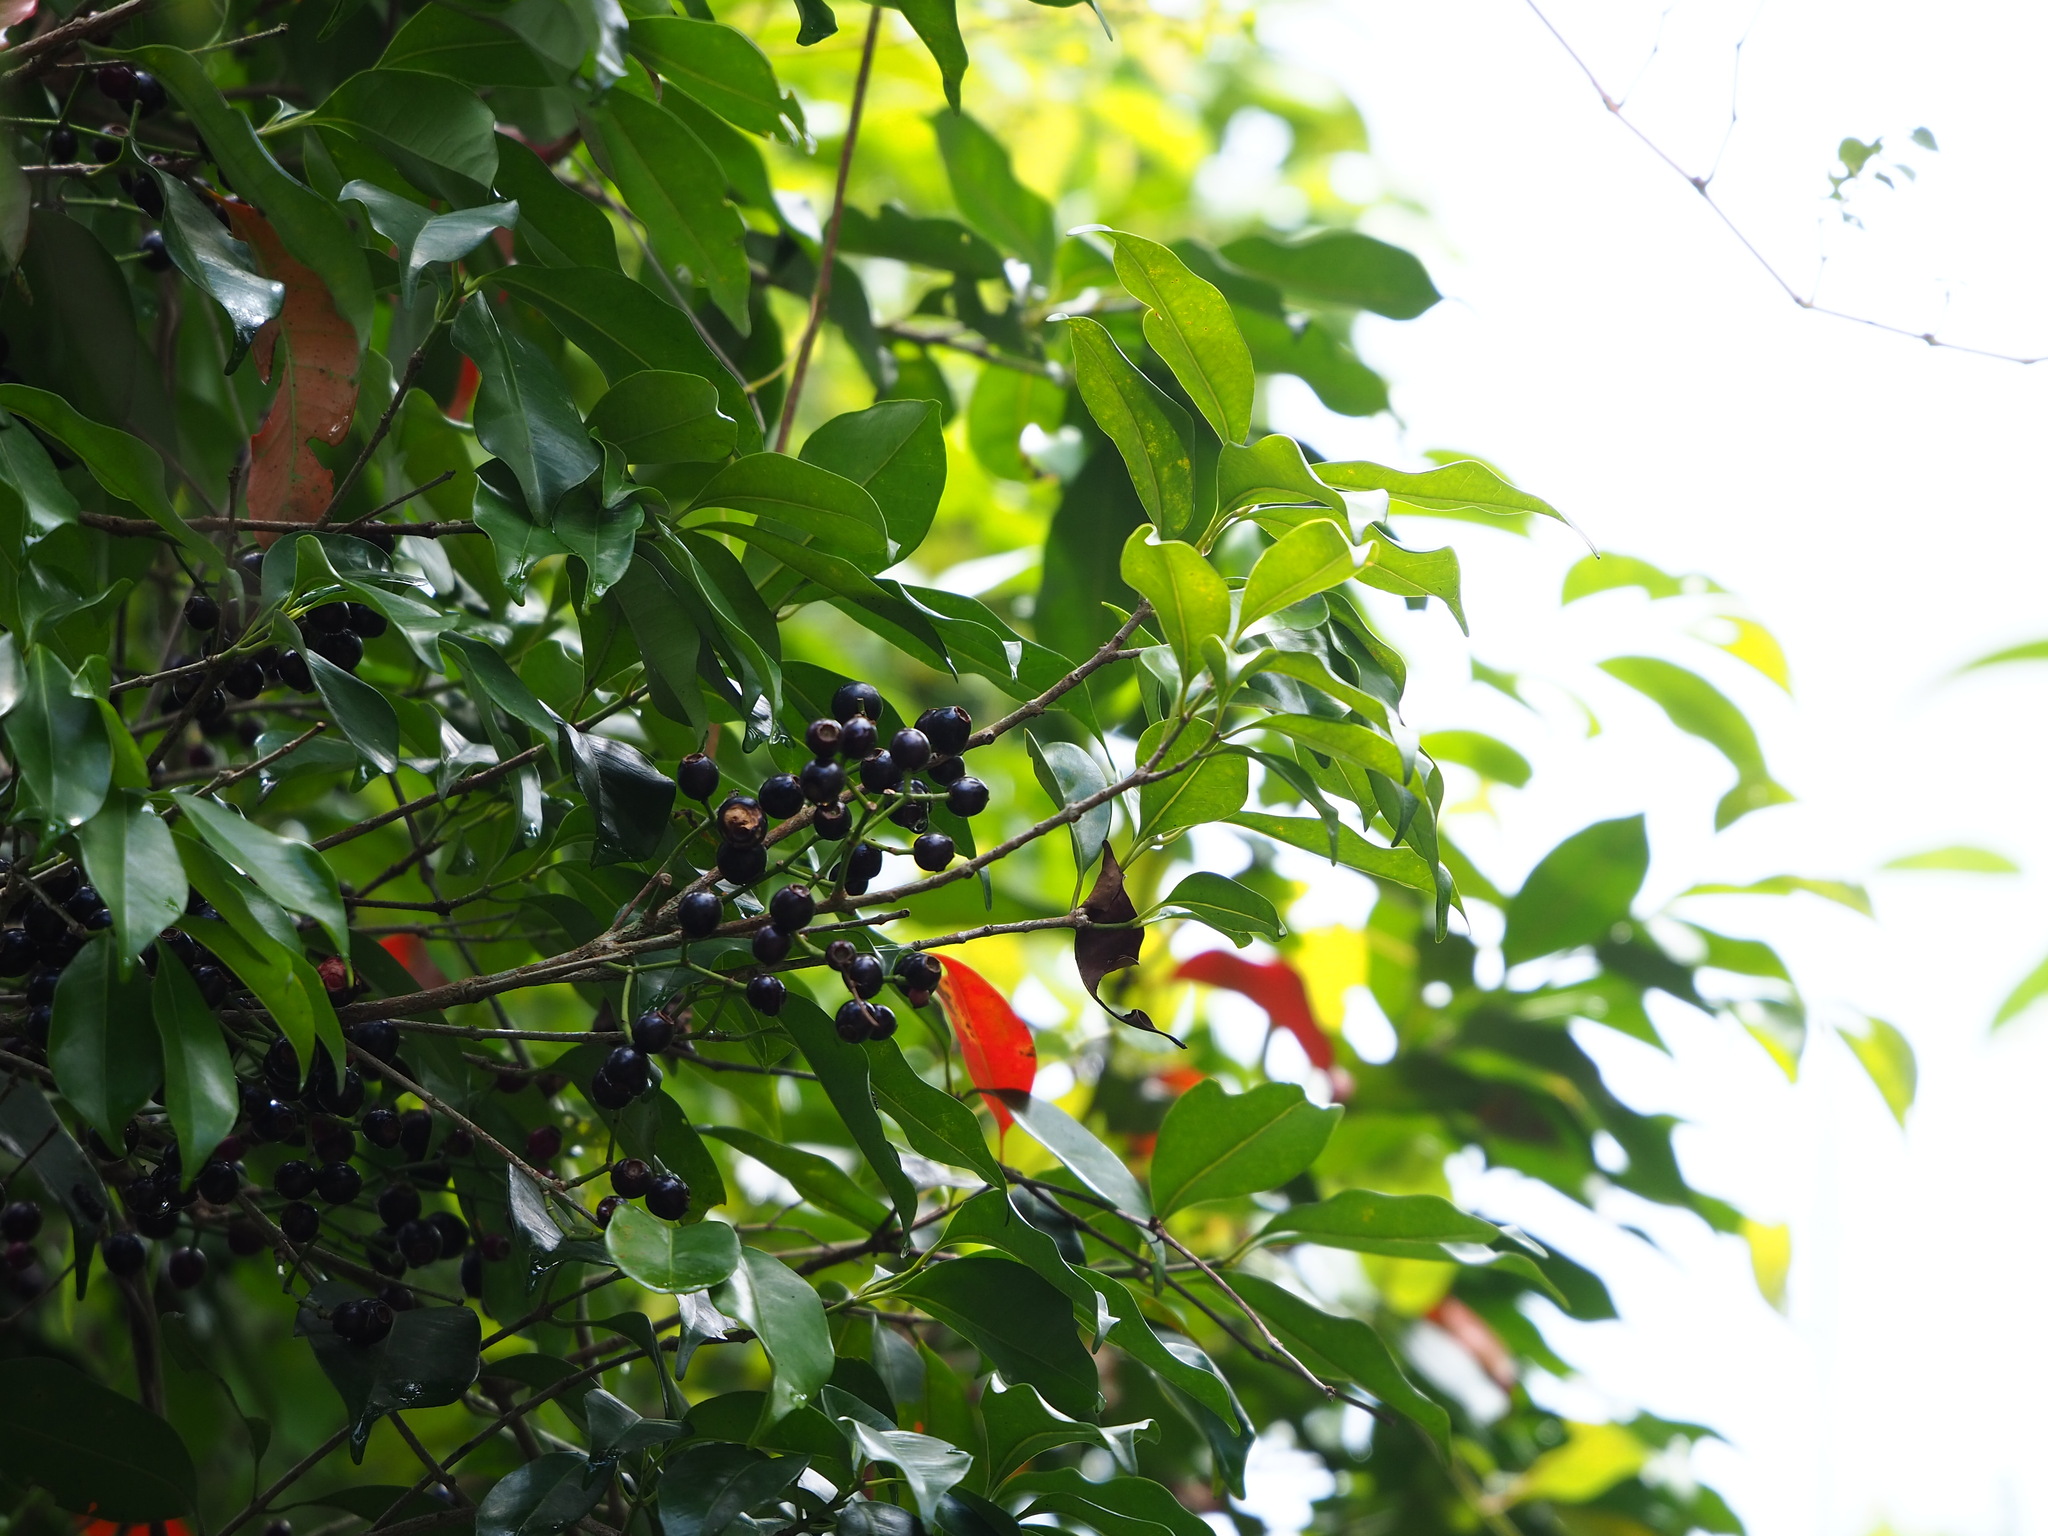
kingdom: Plantae
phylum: Tracheophyta
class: Magnoliopsida
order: Myrtales
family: Myrtaceae
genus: Syzygium
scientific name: Syzygium formosanum
